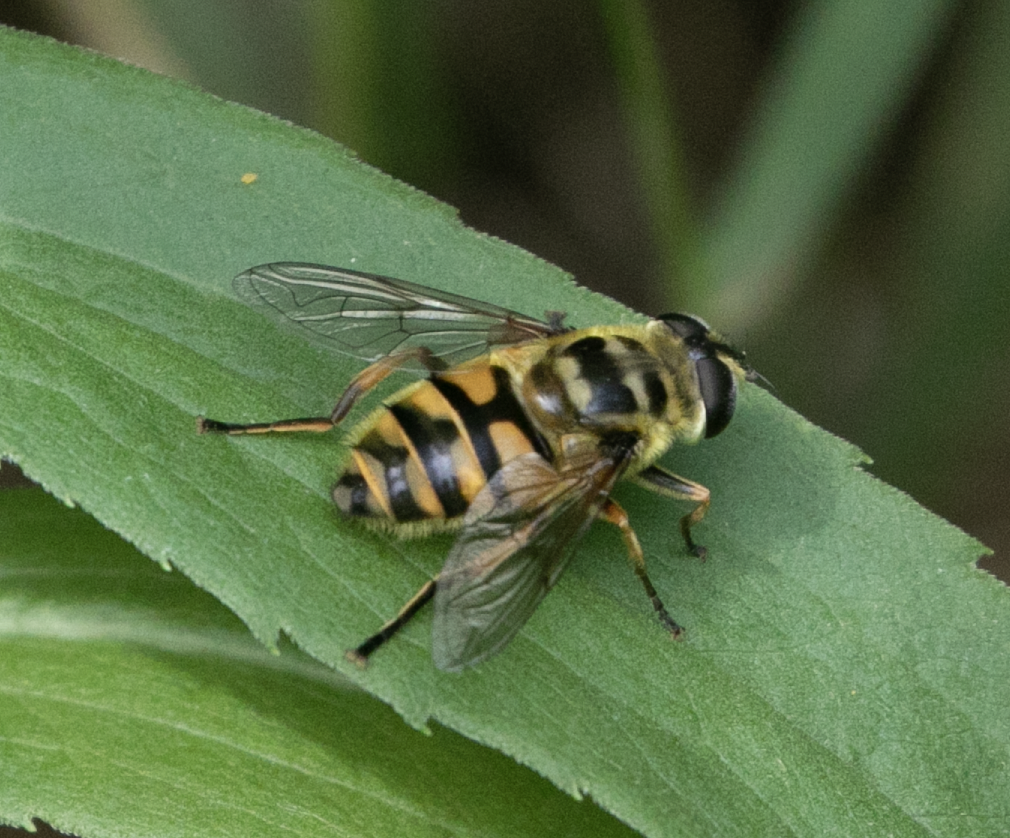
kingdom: Animalia
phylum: Arthropoda
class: Insecta
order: Diptera
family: Syrphidae
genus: Myathropa
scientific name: Myathropa florea
